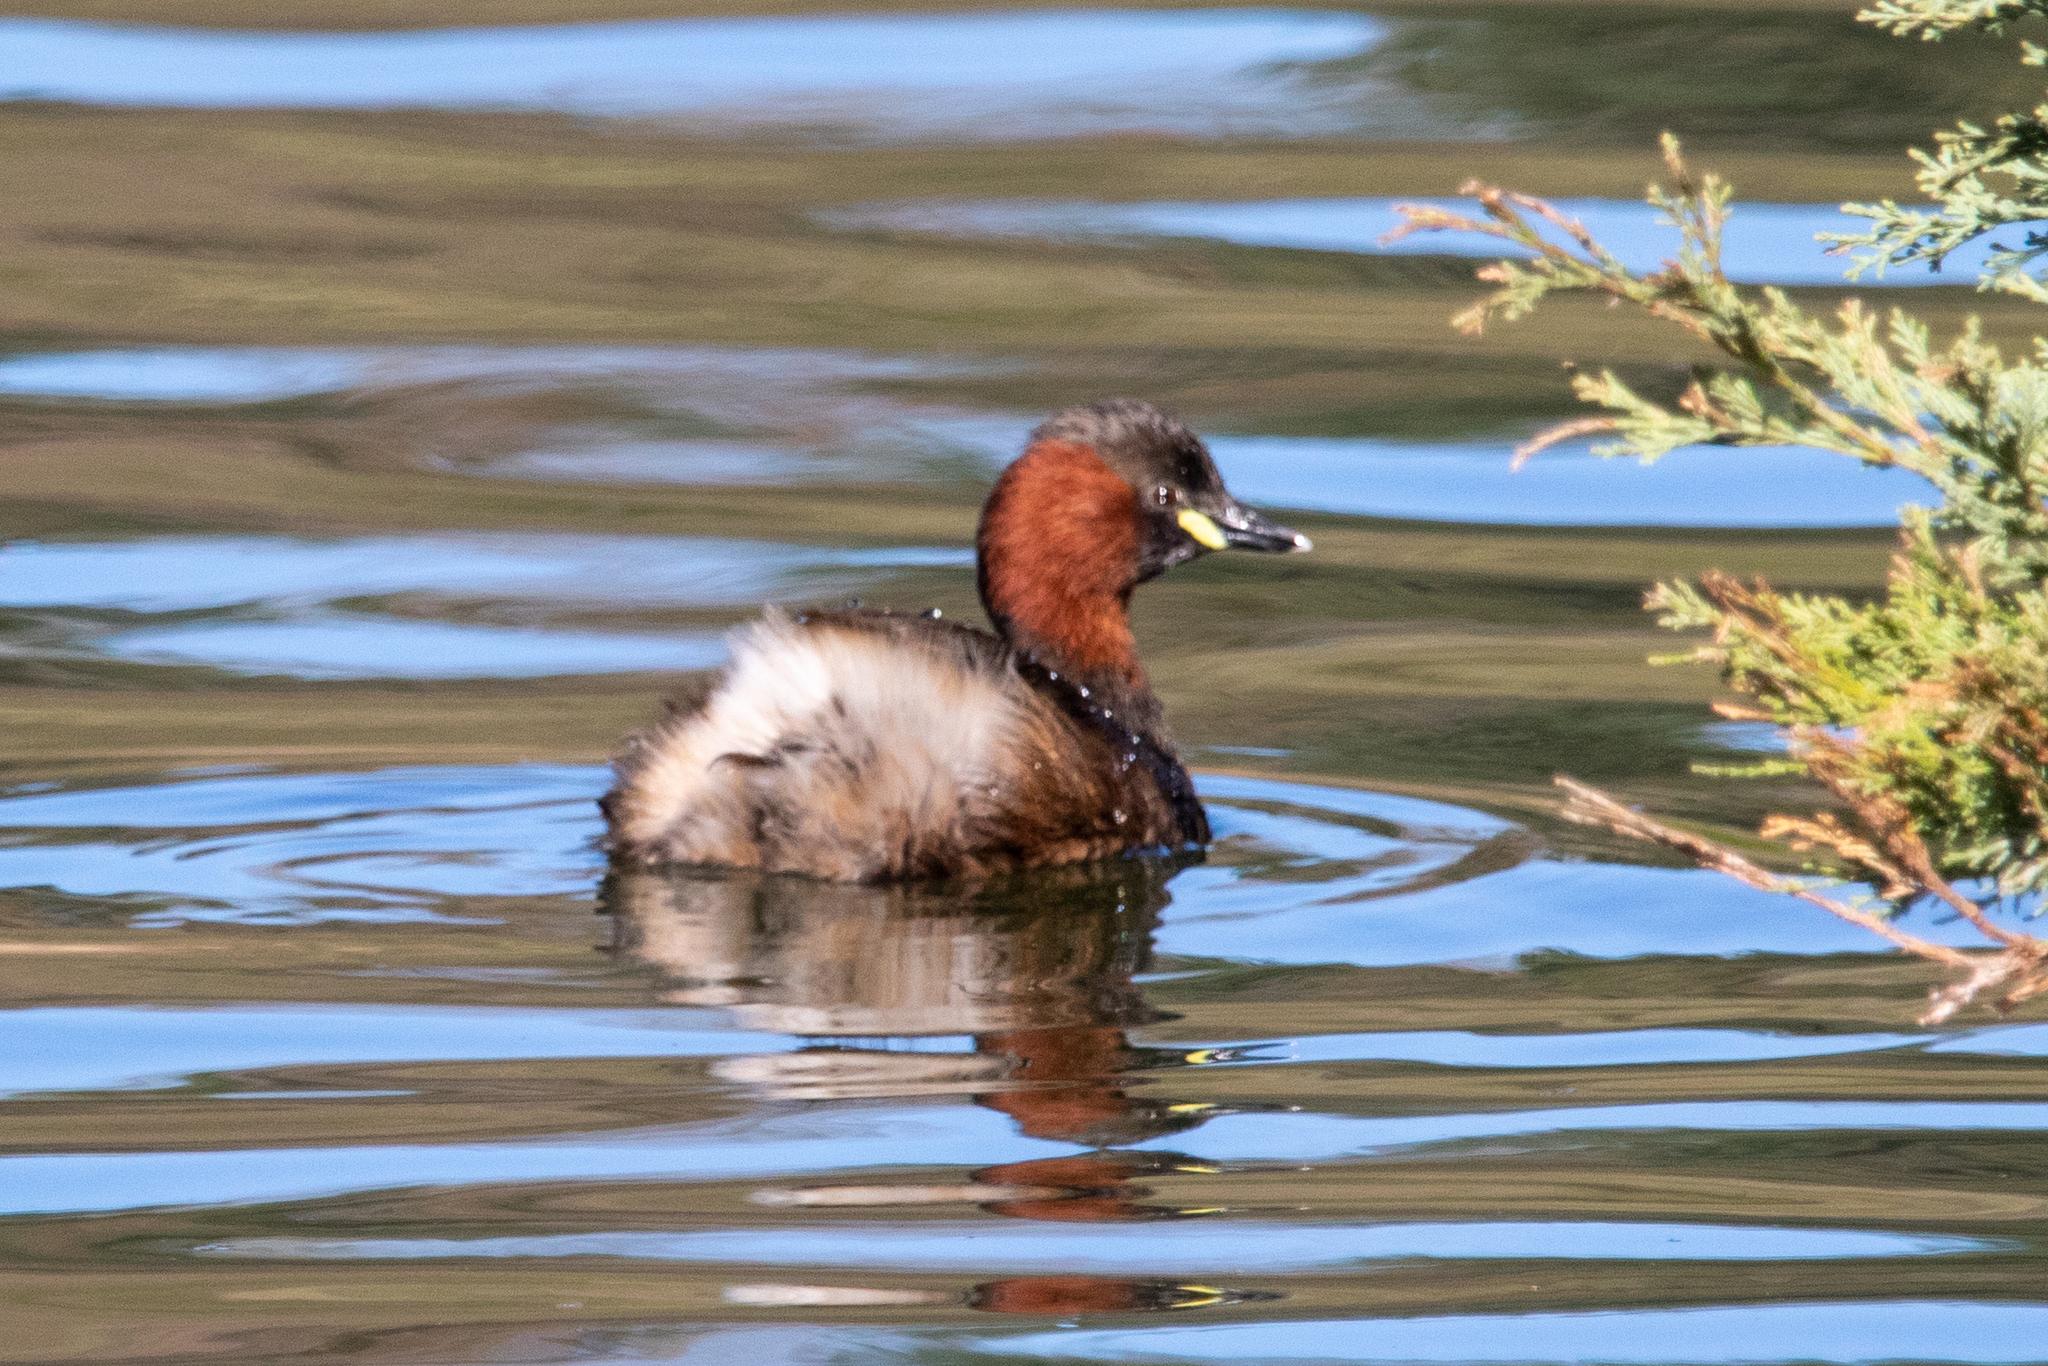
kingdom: Animalia
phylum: Chordata
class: Aves
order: Podicipediformes
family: Podicipedidae
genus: Tachybaptus
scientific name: Tachybaptus ruficollis
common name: Little grebe
